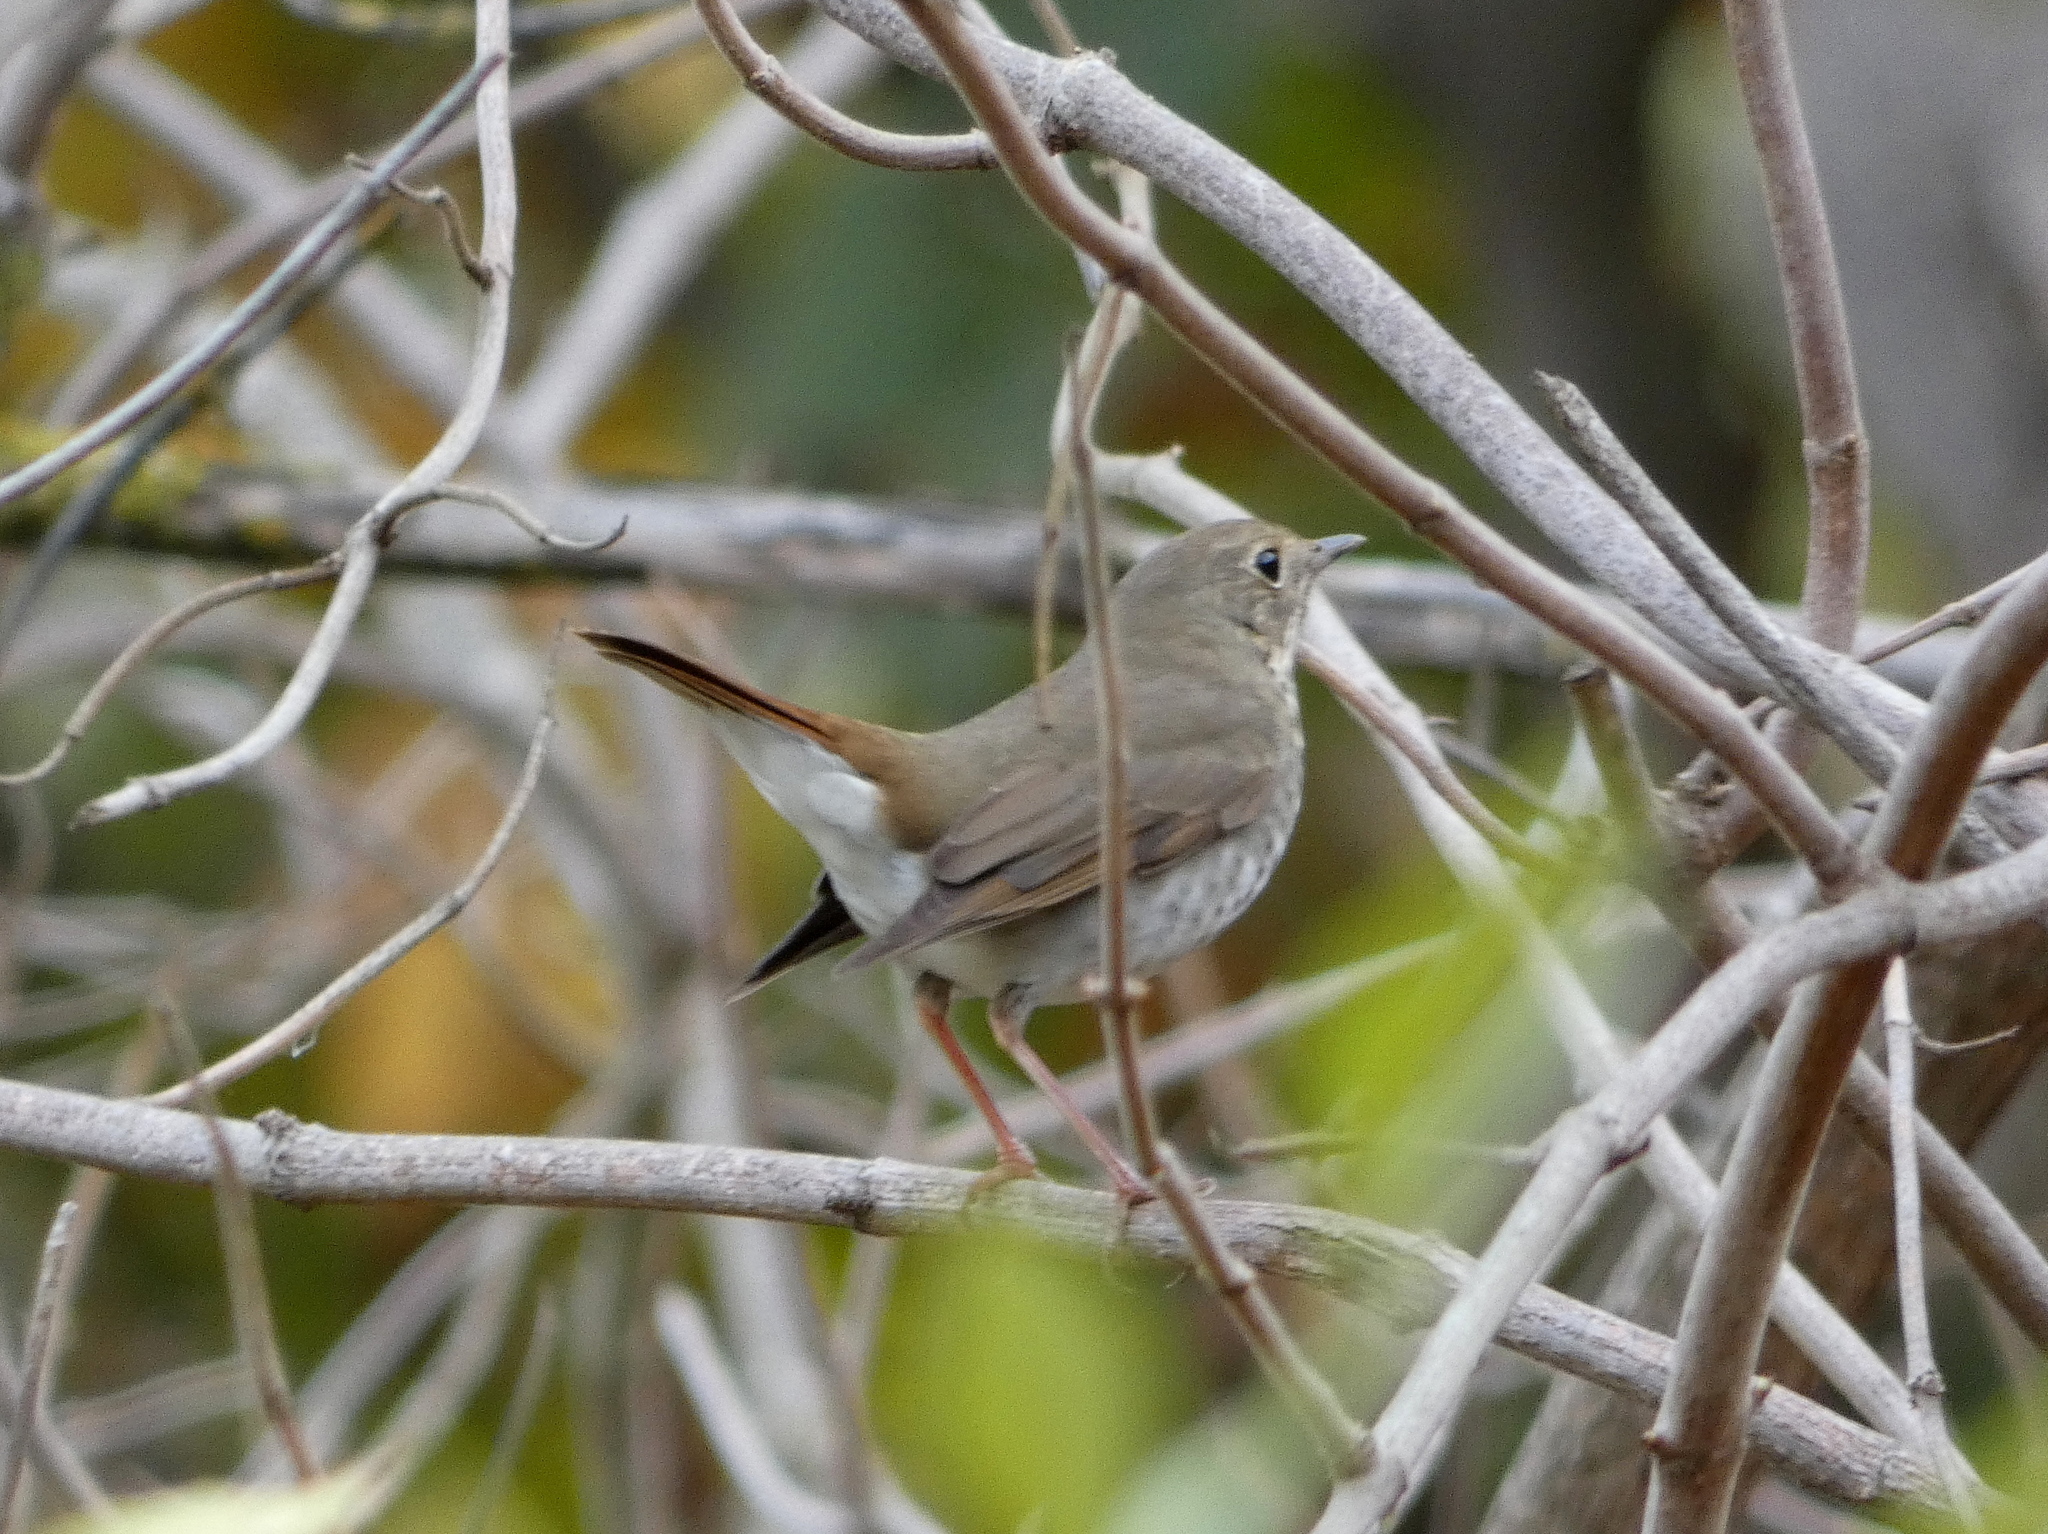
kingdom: Animalia
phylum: Chordata
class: Aves
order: Passeriformes
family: Turdidae
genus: Catharus
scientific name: Catharus guttatus
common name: Hermit thrush
